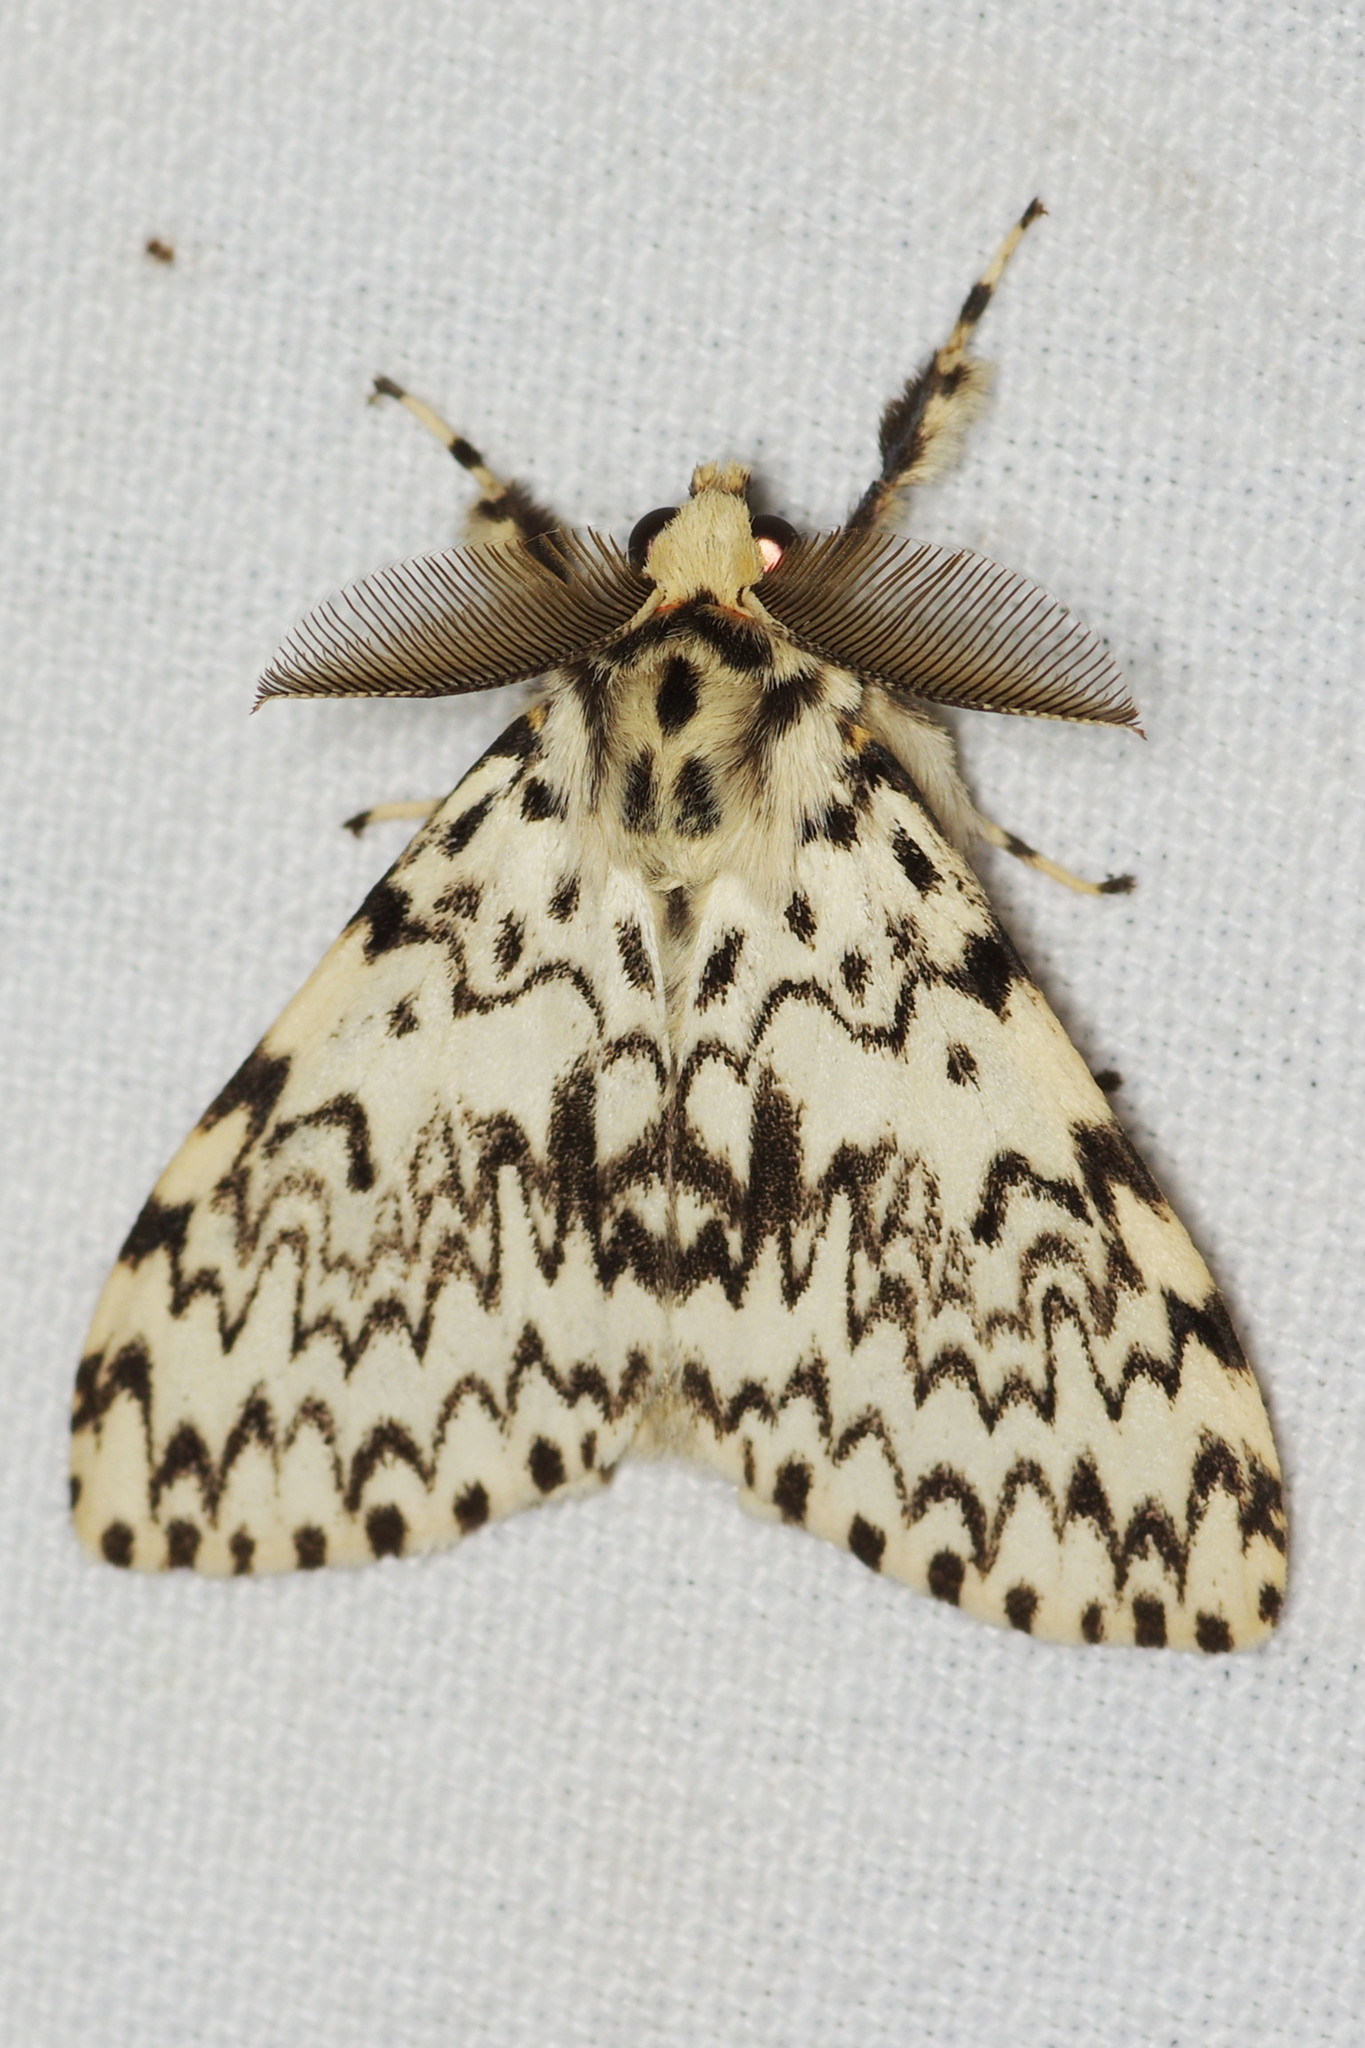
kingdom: Animalia
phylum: Arthropoda
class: Insecta
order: Lepidoptera
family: Erebidae
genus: Lymantria
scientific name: Lymantria monacha
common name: Black arches
